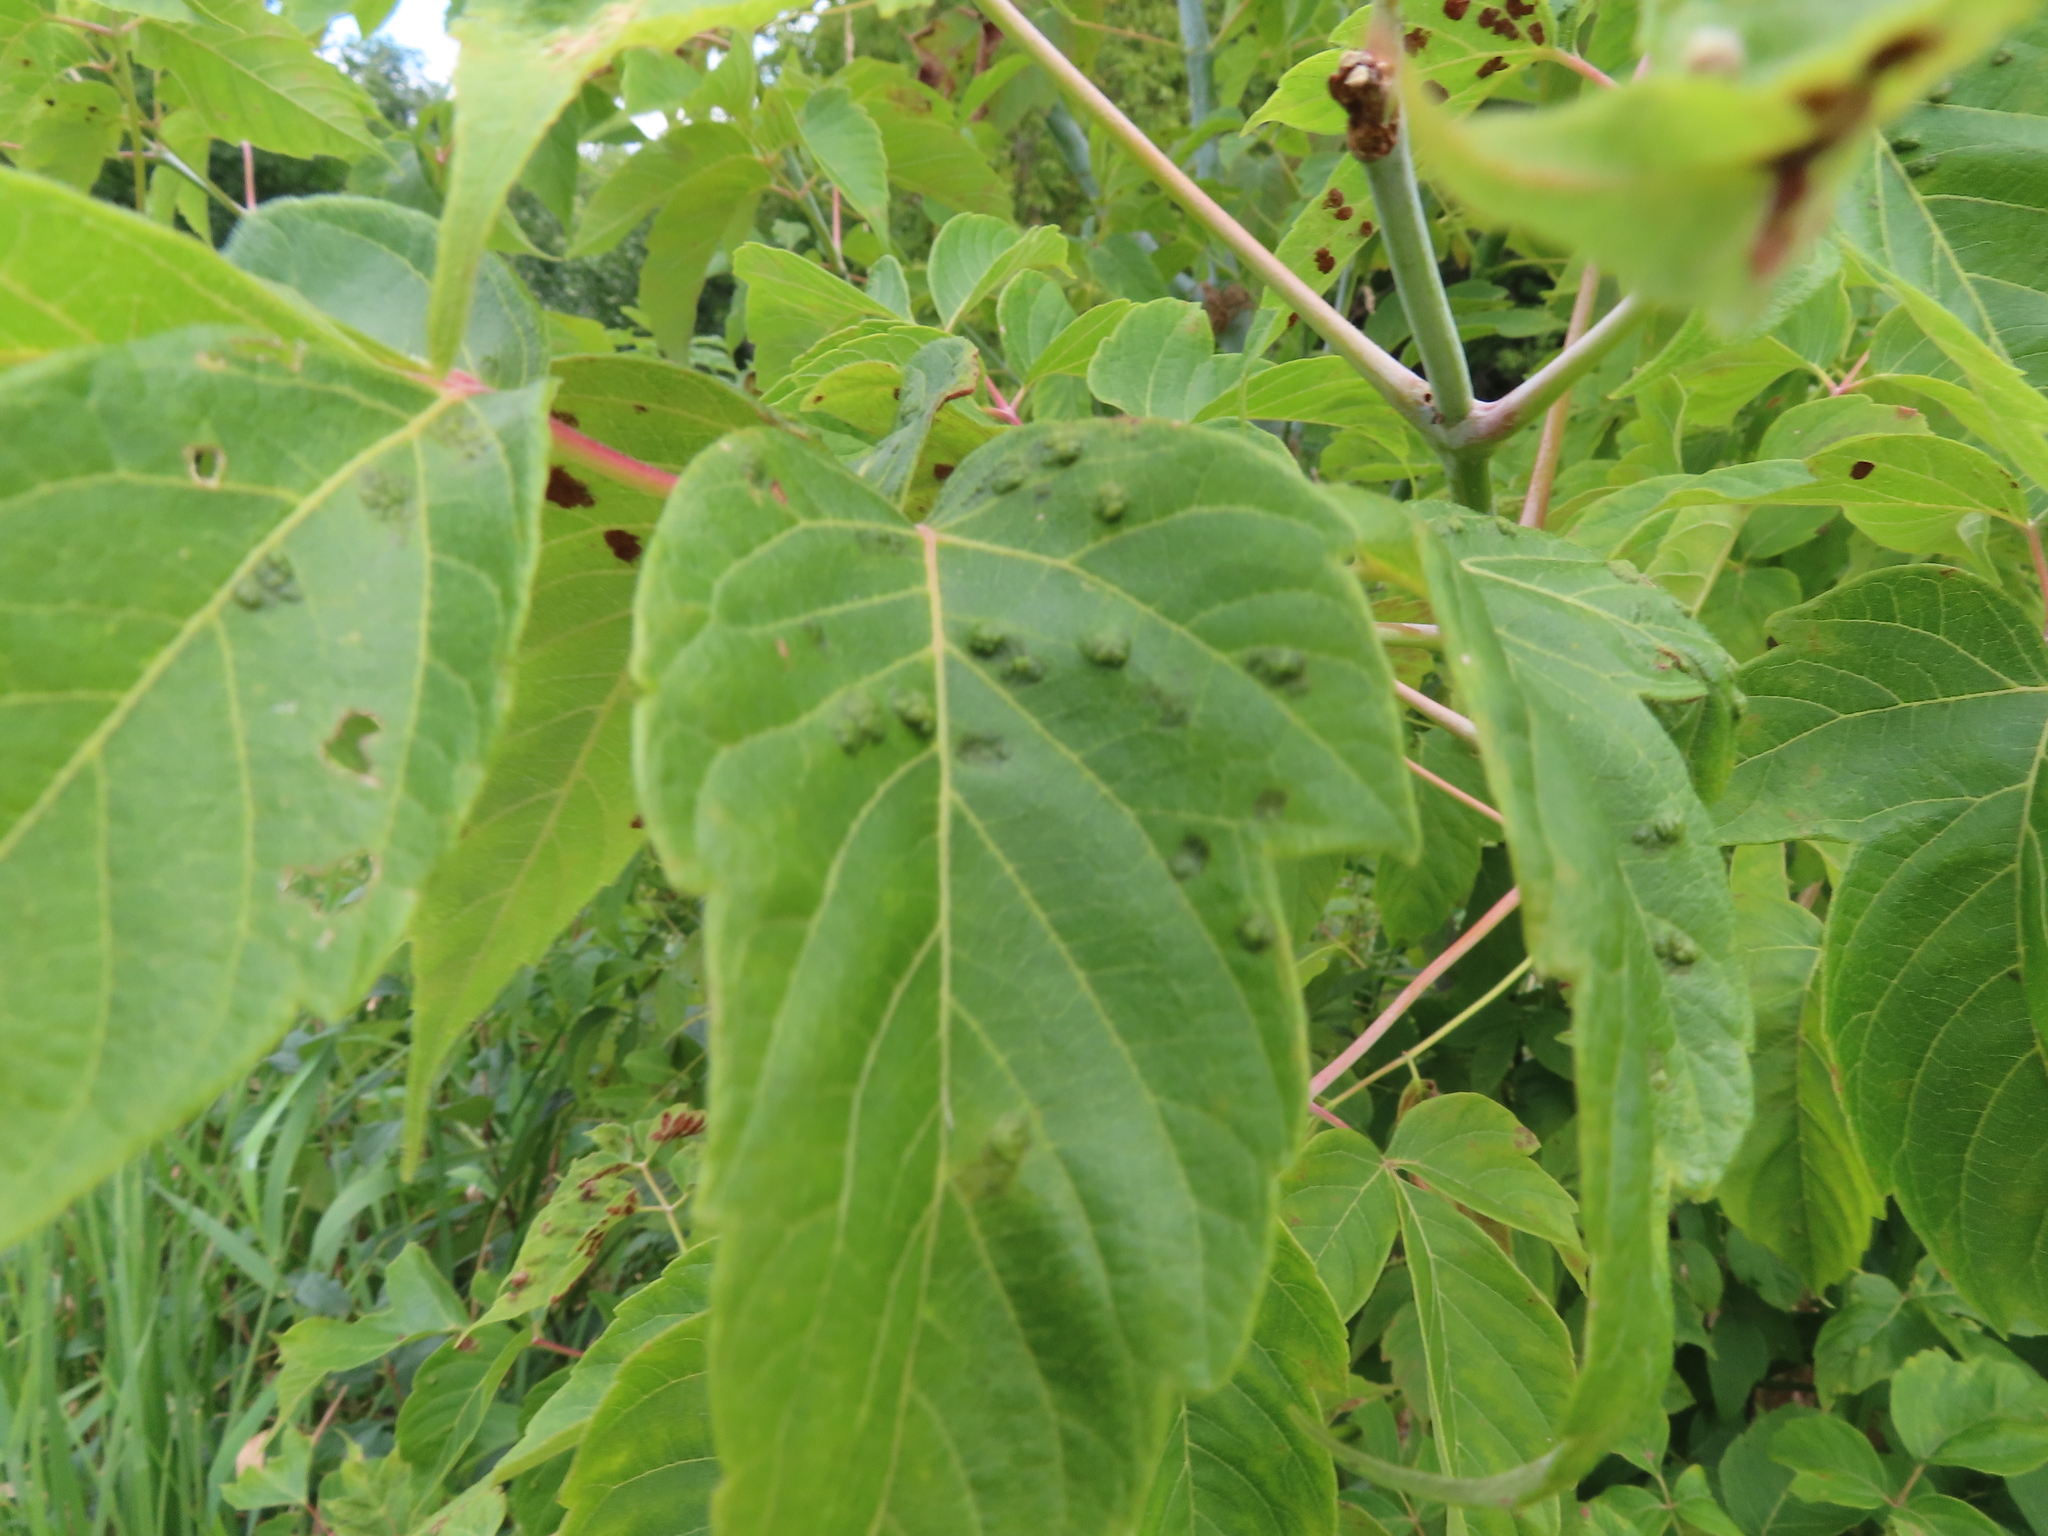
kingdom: Animalia
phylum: Arthropoda
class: Arachnida
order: Trombidiformes
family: Eriophyidae
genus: Aceria
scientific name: Aceria
